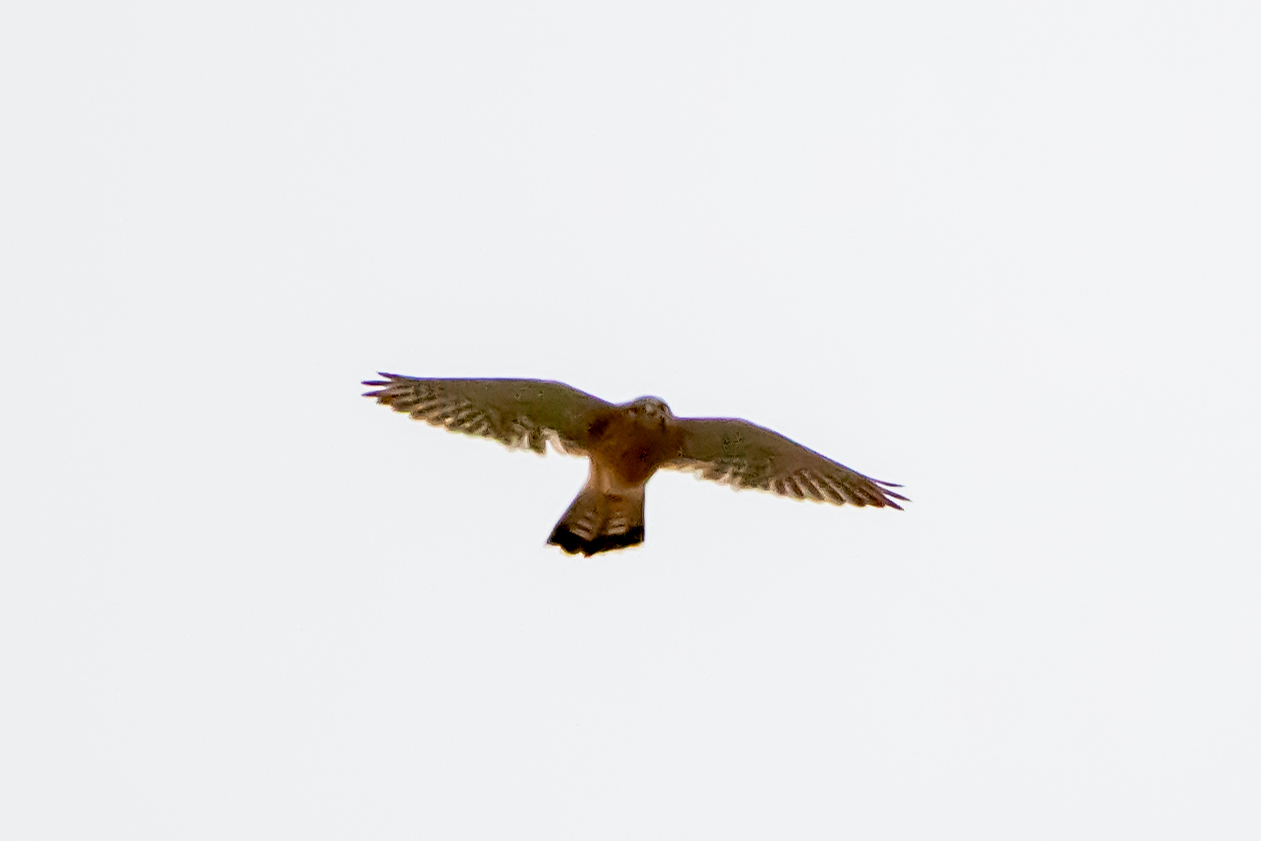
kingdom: Animalia
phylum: Chordata
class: Aves
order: Falconiformes
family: Falconidae
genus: Falco
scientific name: Falco tinnunculus
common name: Common kestrel
